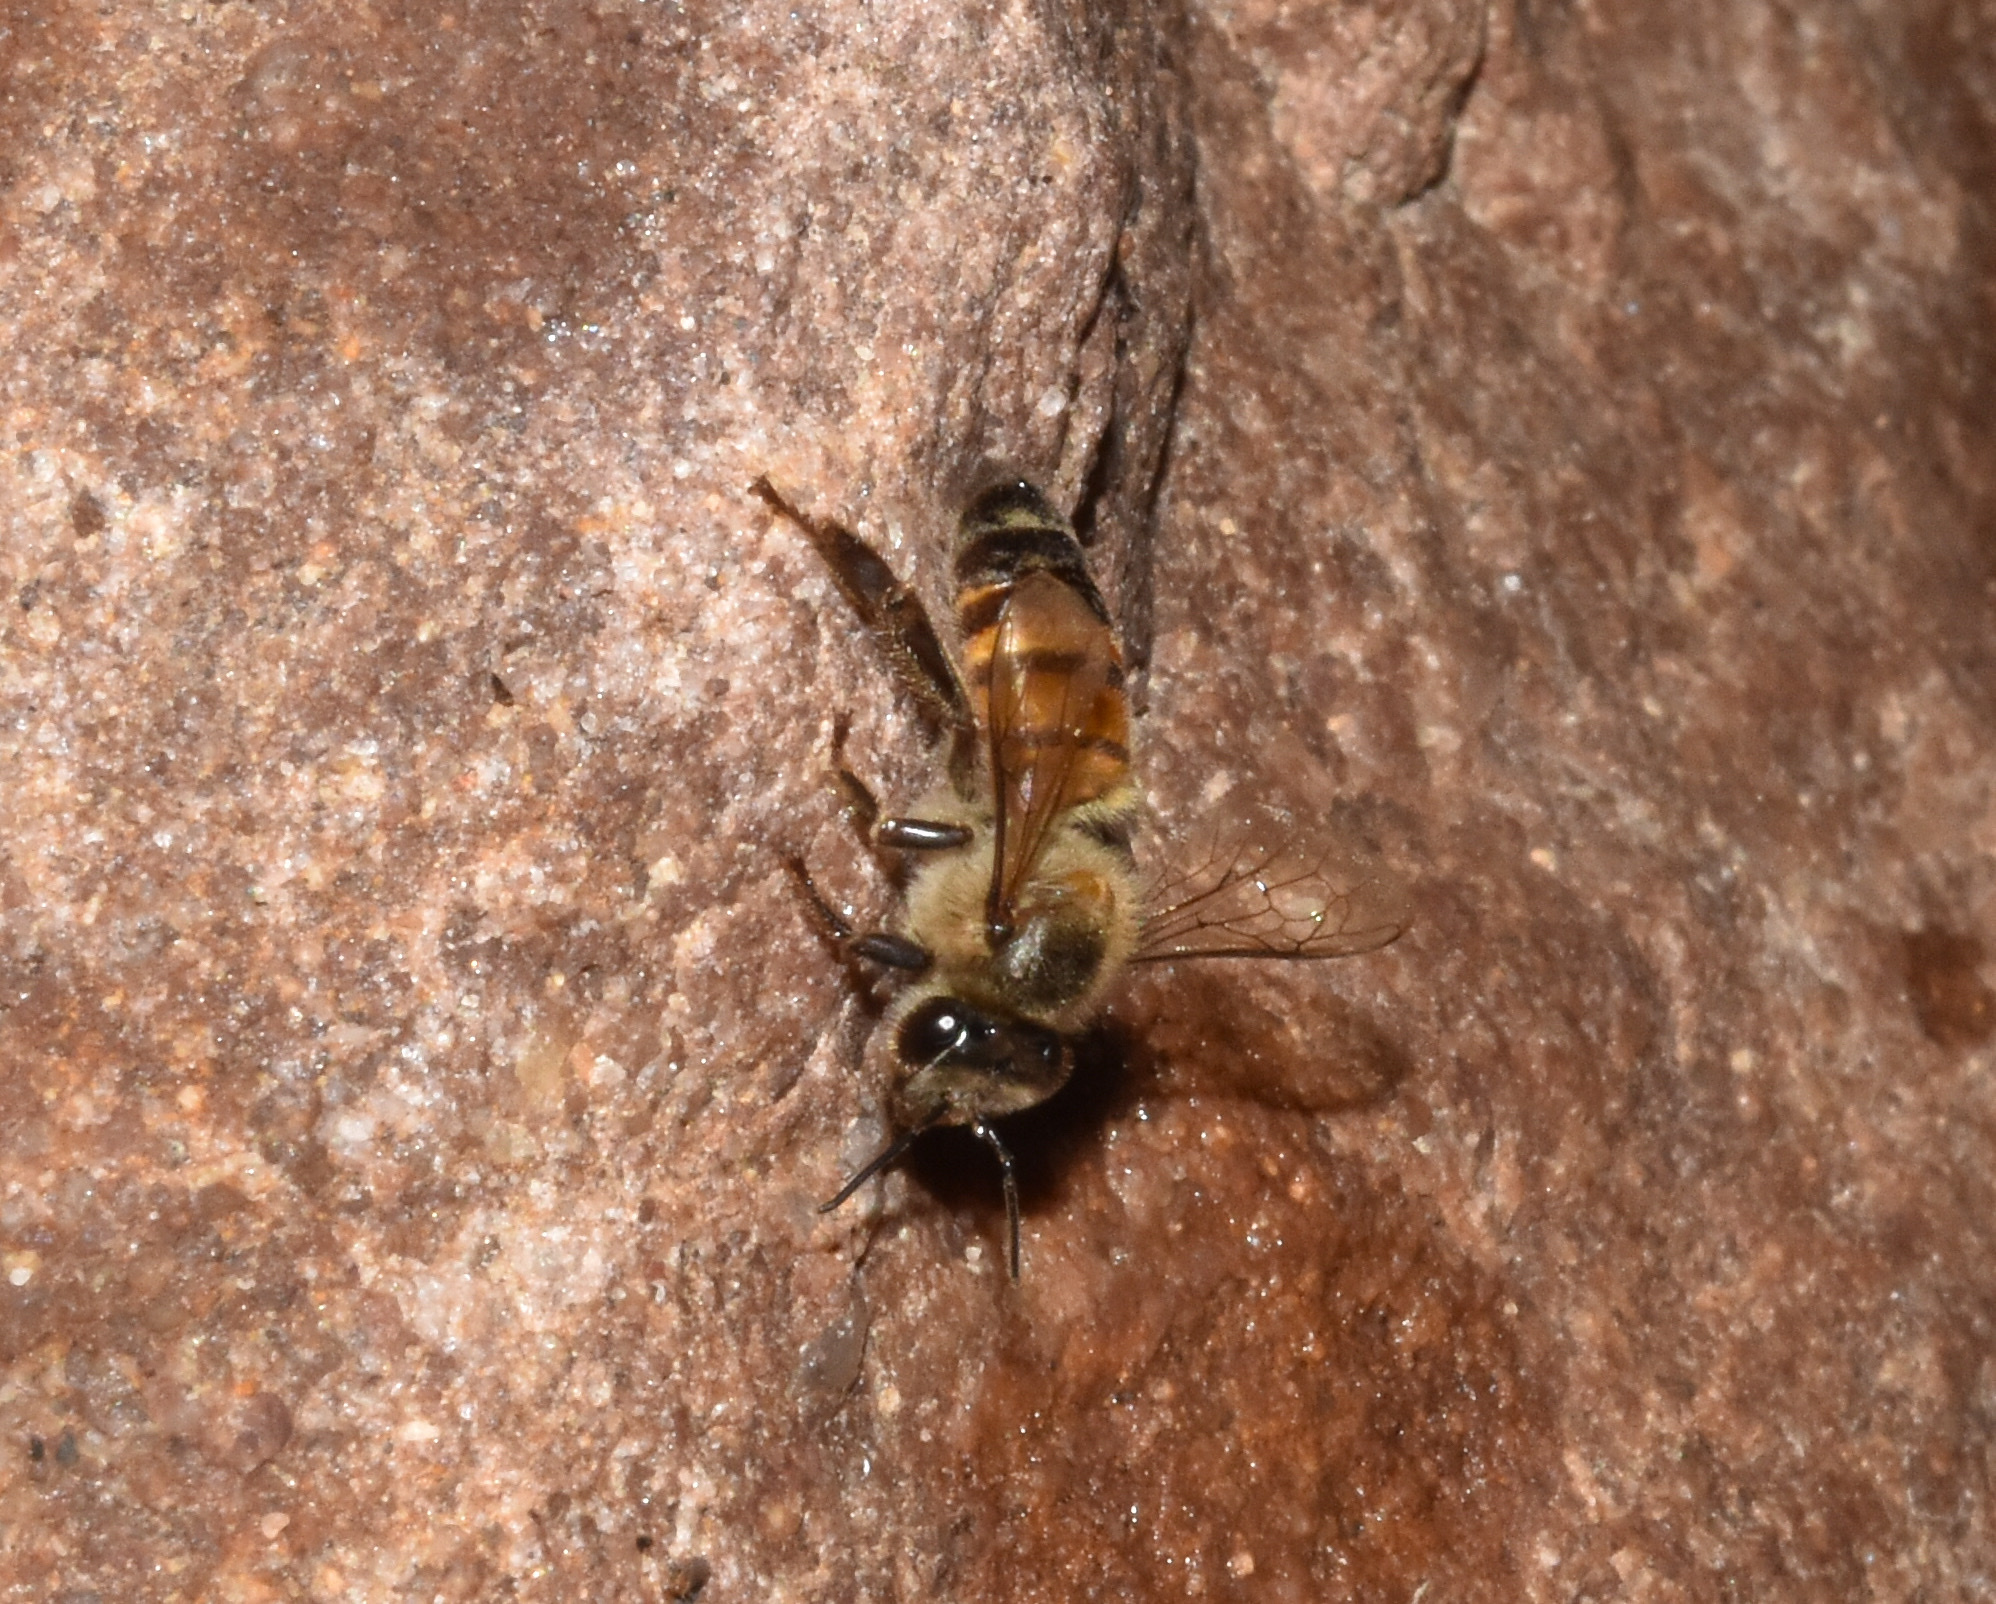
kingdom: Animalia
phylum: Arthropoda
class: Insecta
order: Hymenoptera
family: Apidae
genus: Apis
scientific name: Apis mellifera
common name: Honey bee
